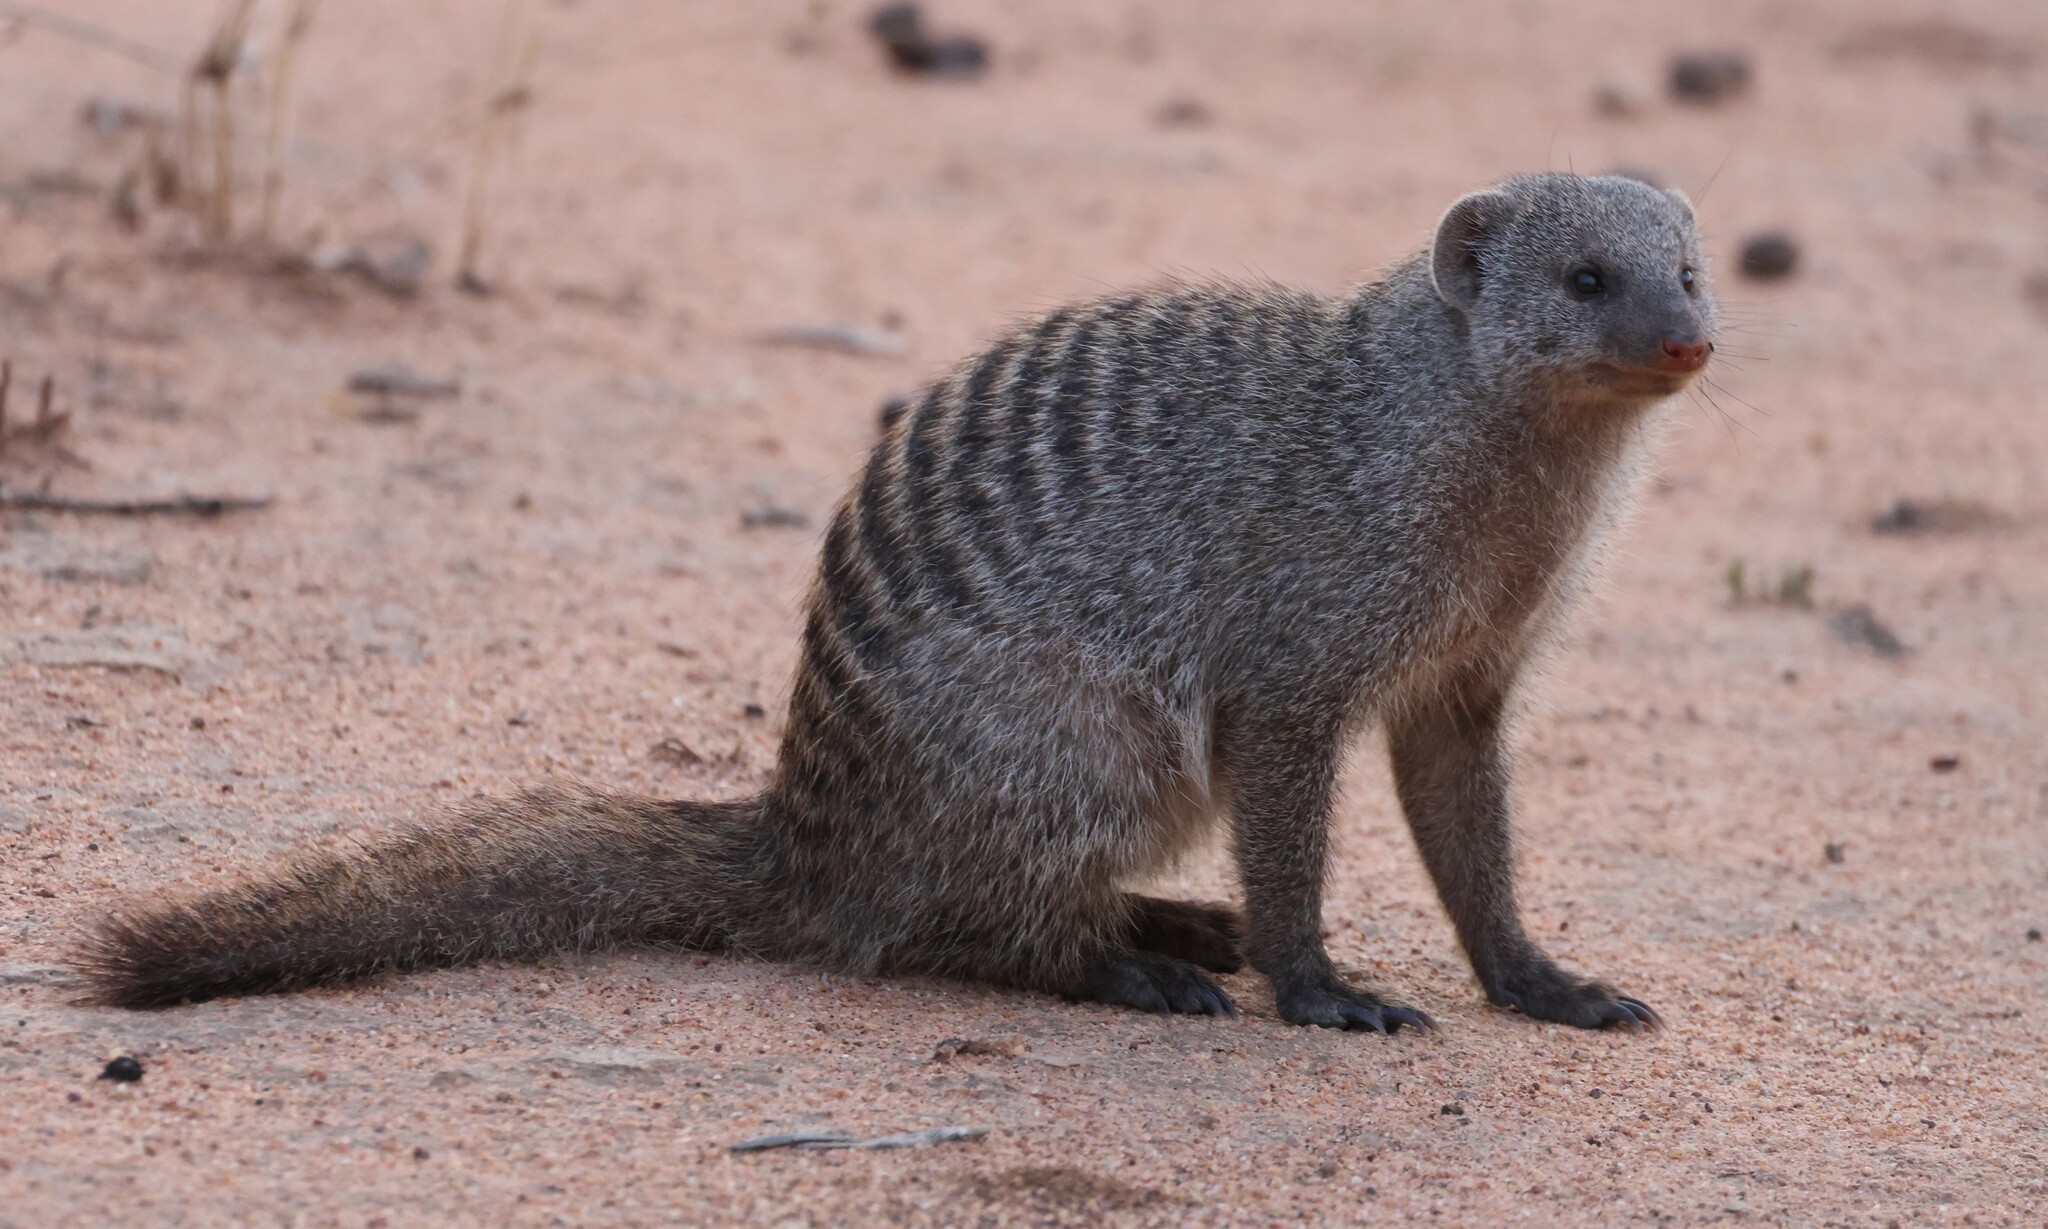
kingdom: Animalia
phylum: Chordata
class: Mammalia
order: Carnivora
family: Herpestidae
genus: Mungos
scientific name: Mungos mungo
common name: Banded mongoose
